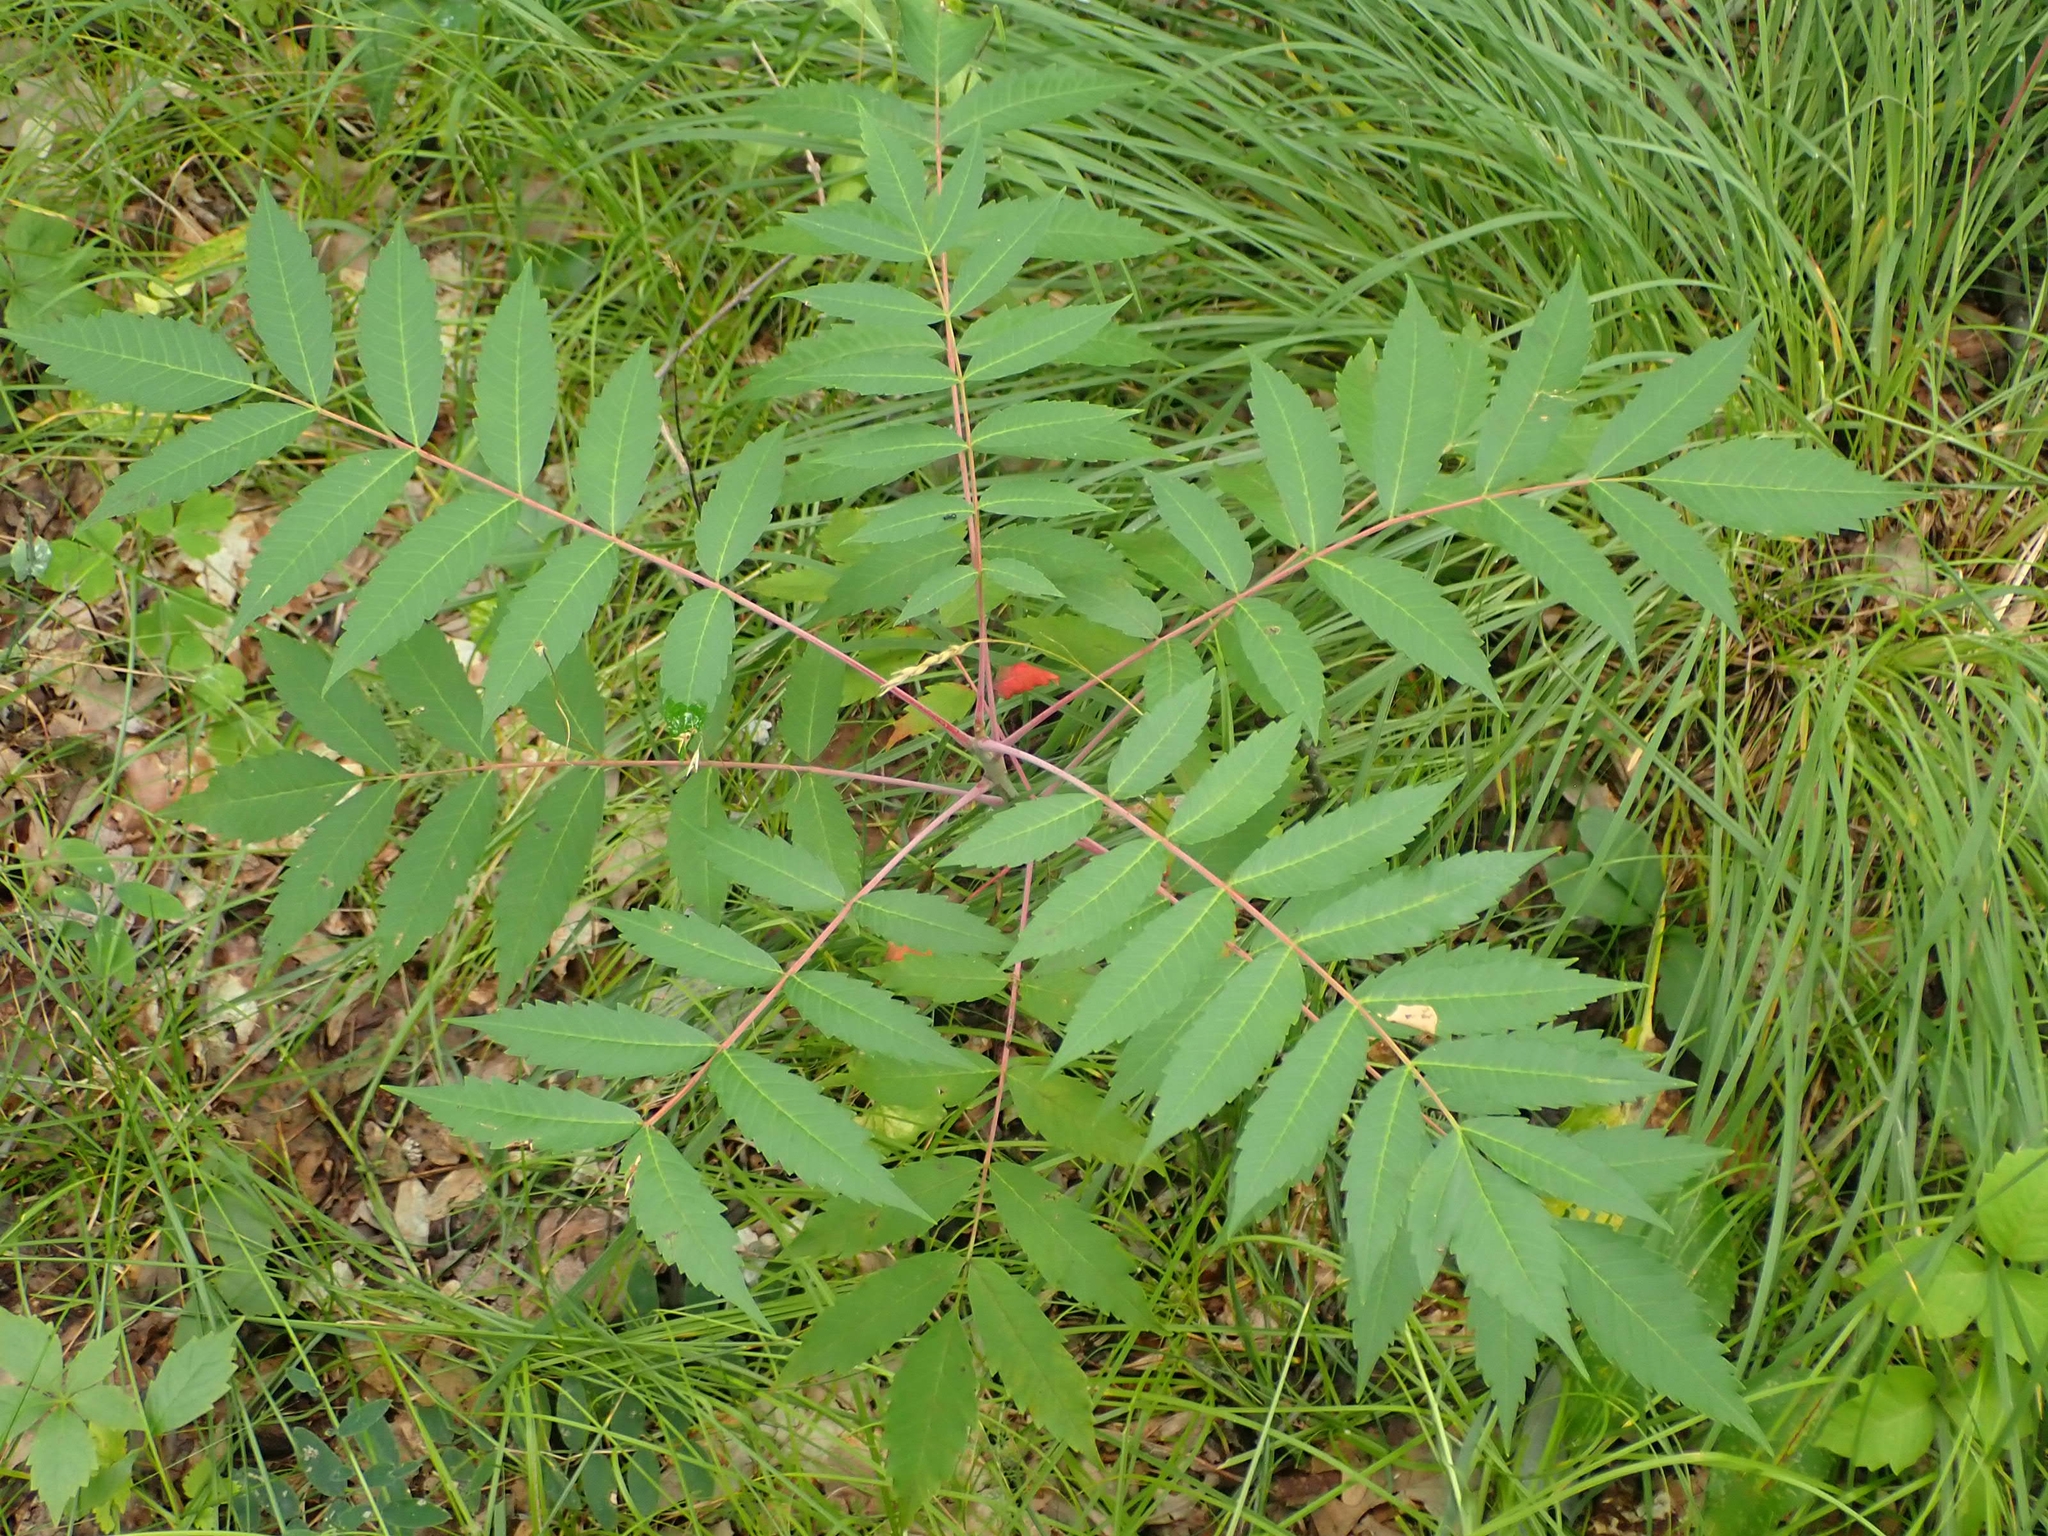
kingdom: Plantae
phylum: Tracheophyta
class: Magnoliopsida
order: Sapindales
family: Anacardiaceae
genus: Rhus
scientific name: Rhus glabra
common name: Scarlet sumac
